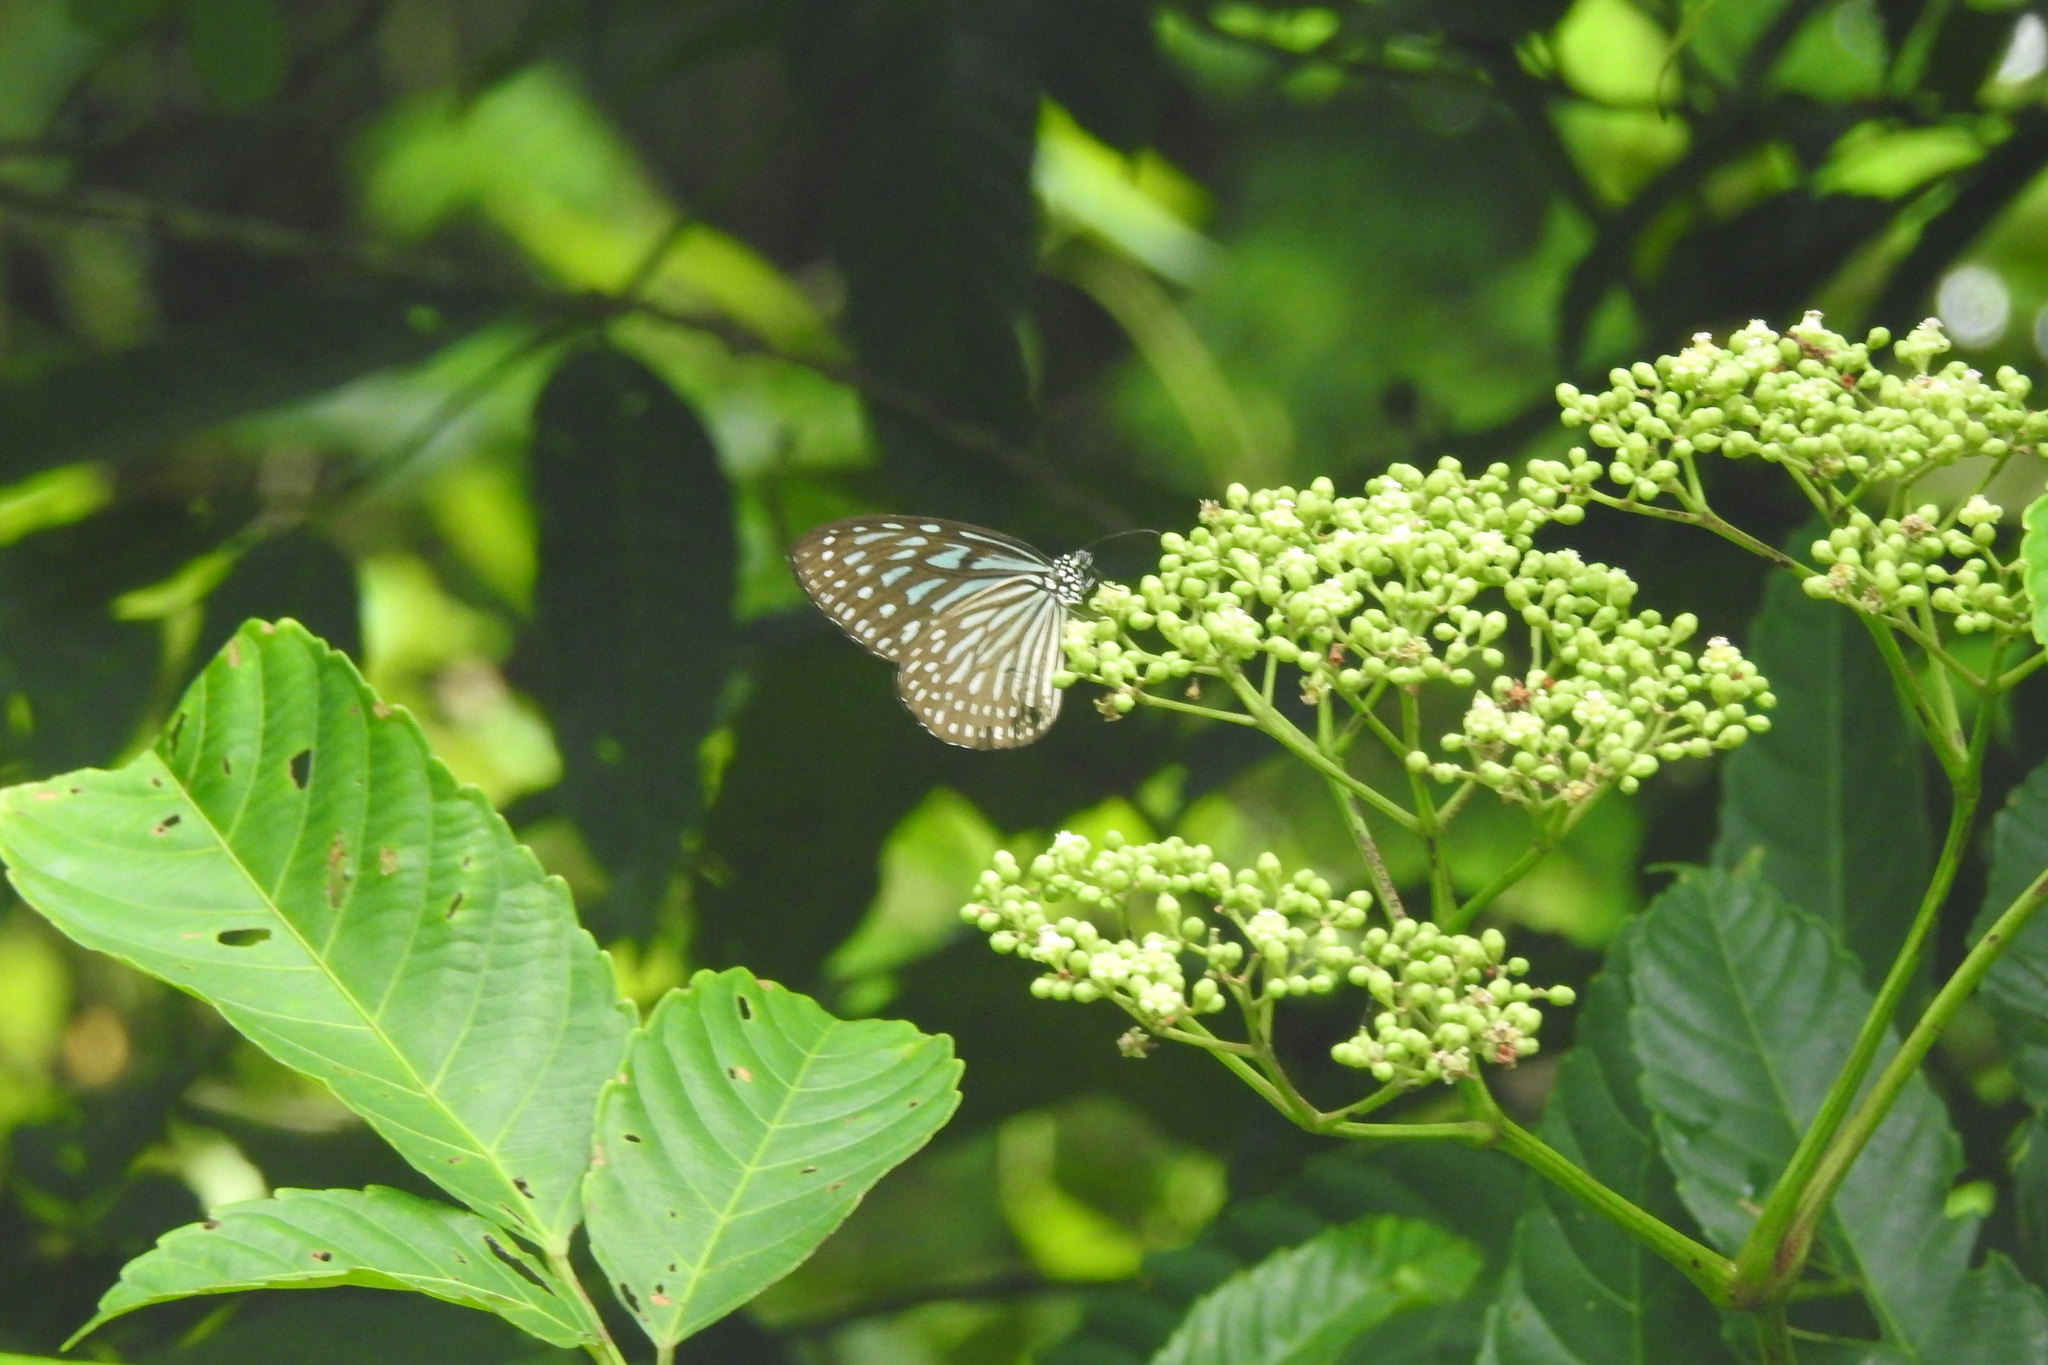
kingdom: Animalia
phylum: Arthropoda
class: Insecta
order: Lepidoptera
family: Nymphalidae
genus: Ideopsis
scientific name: Ideopsis vulgaris
